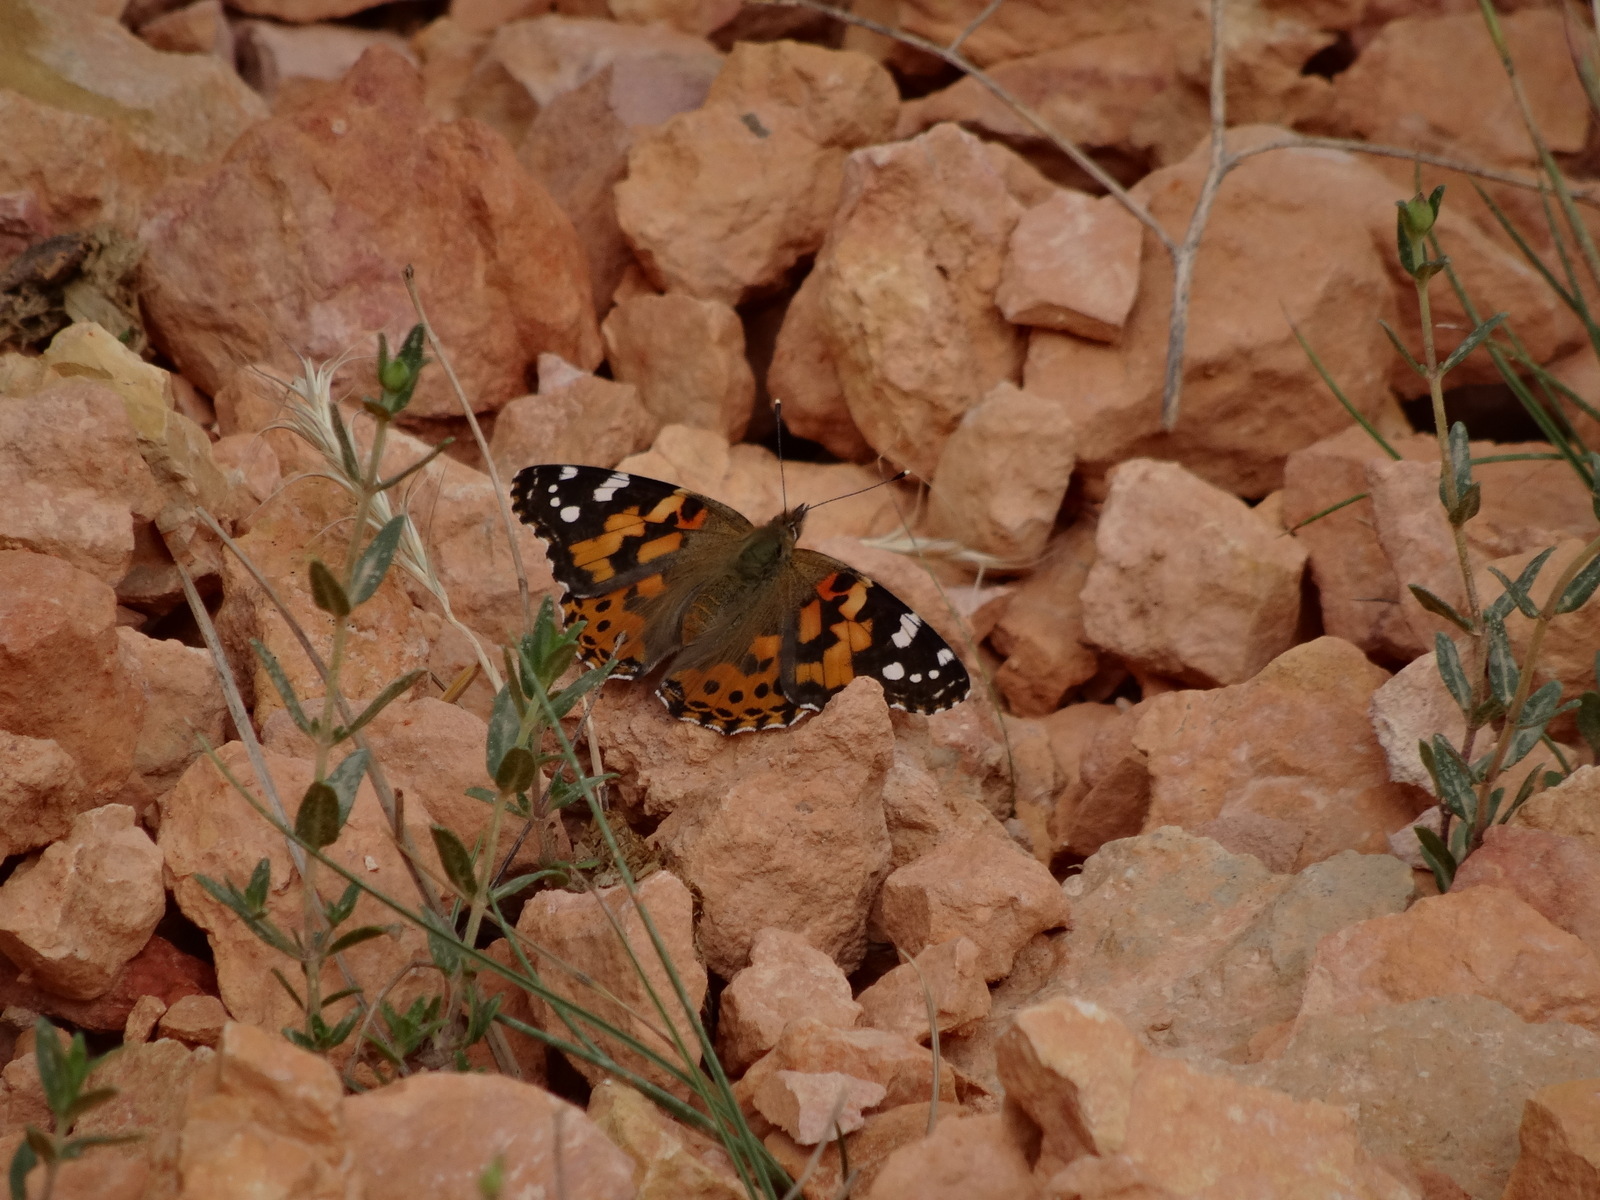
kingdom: Animalia
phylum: Arthropoda
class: Insecta
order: Lepidoptera
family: Nymphalidae
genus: Vanessa
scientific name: Vanessa cardui
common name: Painted lady
